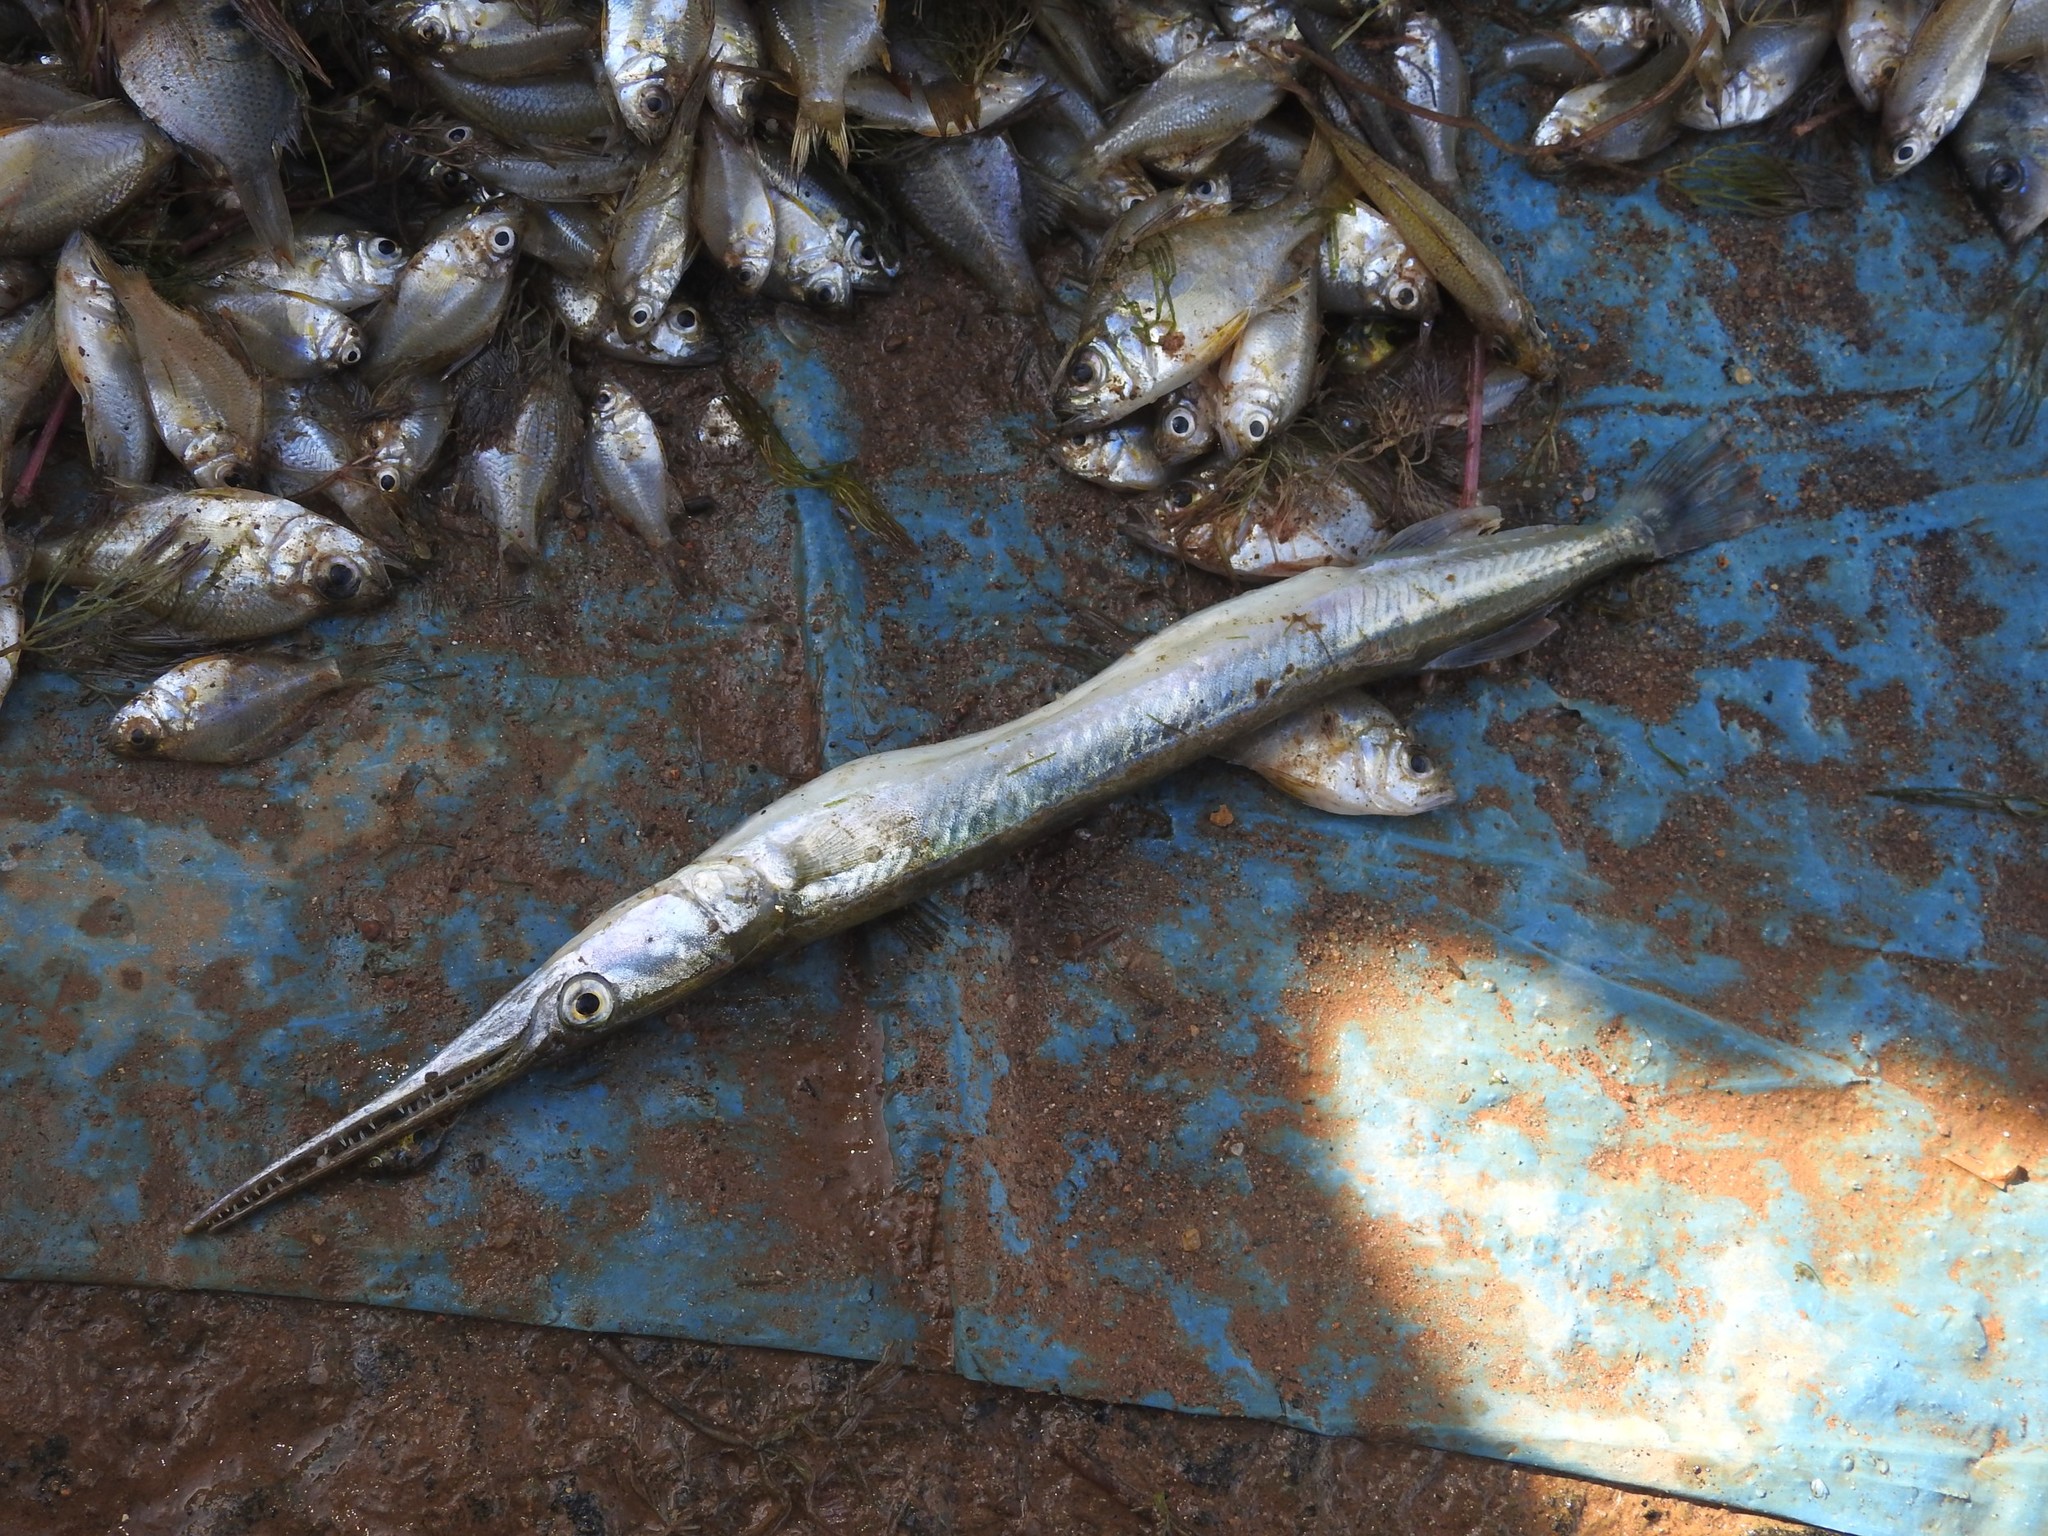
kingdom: Animalia
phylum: Chordata
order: Beloniformes
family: Belonidae
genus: Xenentodon
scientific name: Xenentodon cancila
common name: Freshwater garfish
